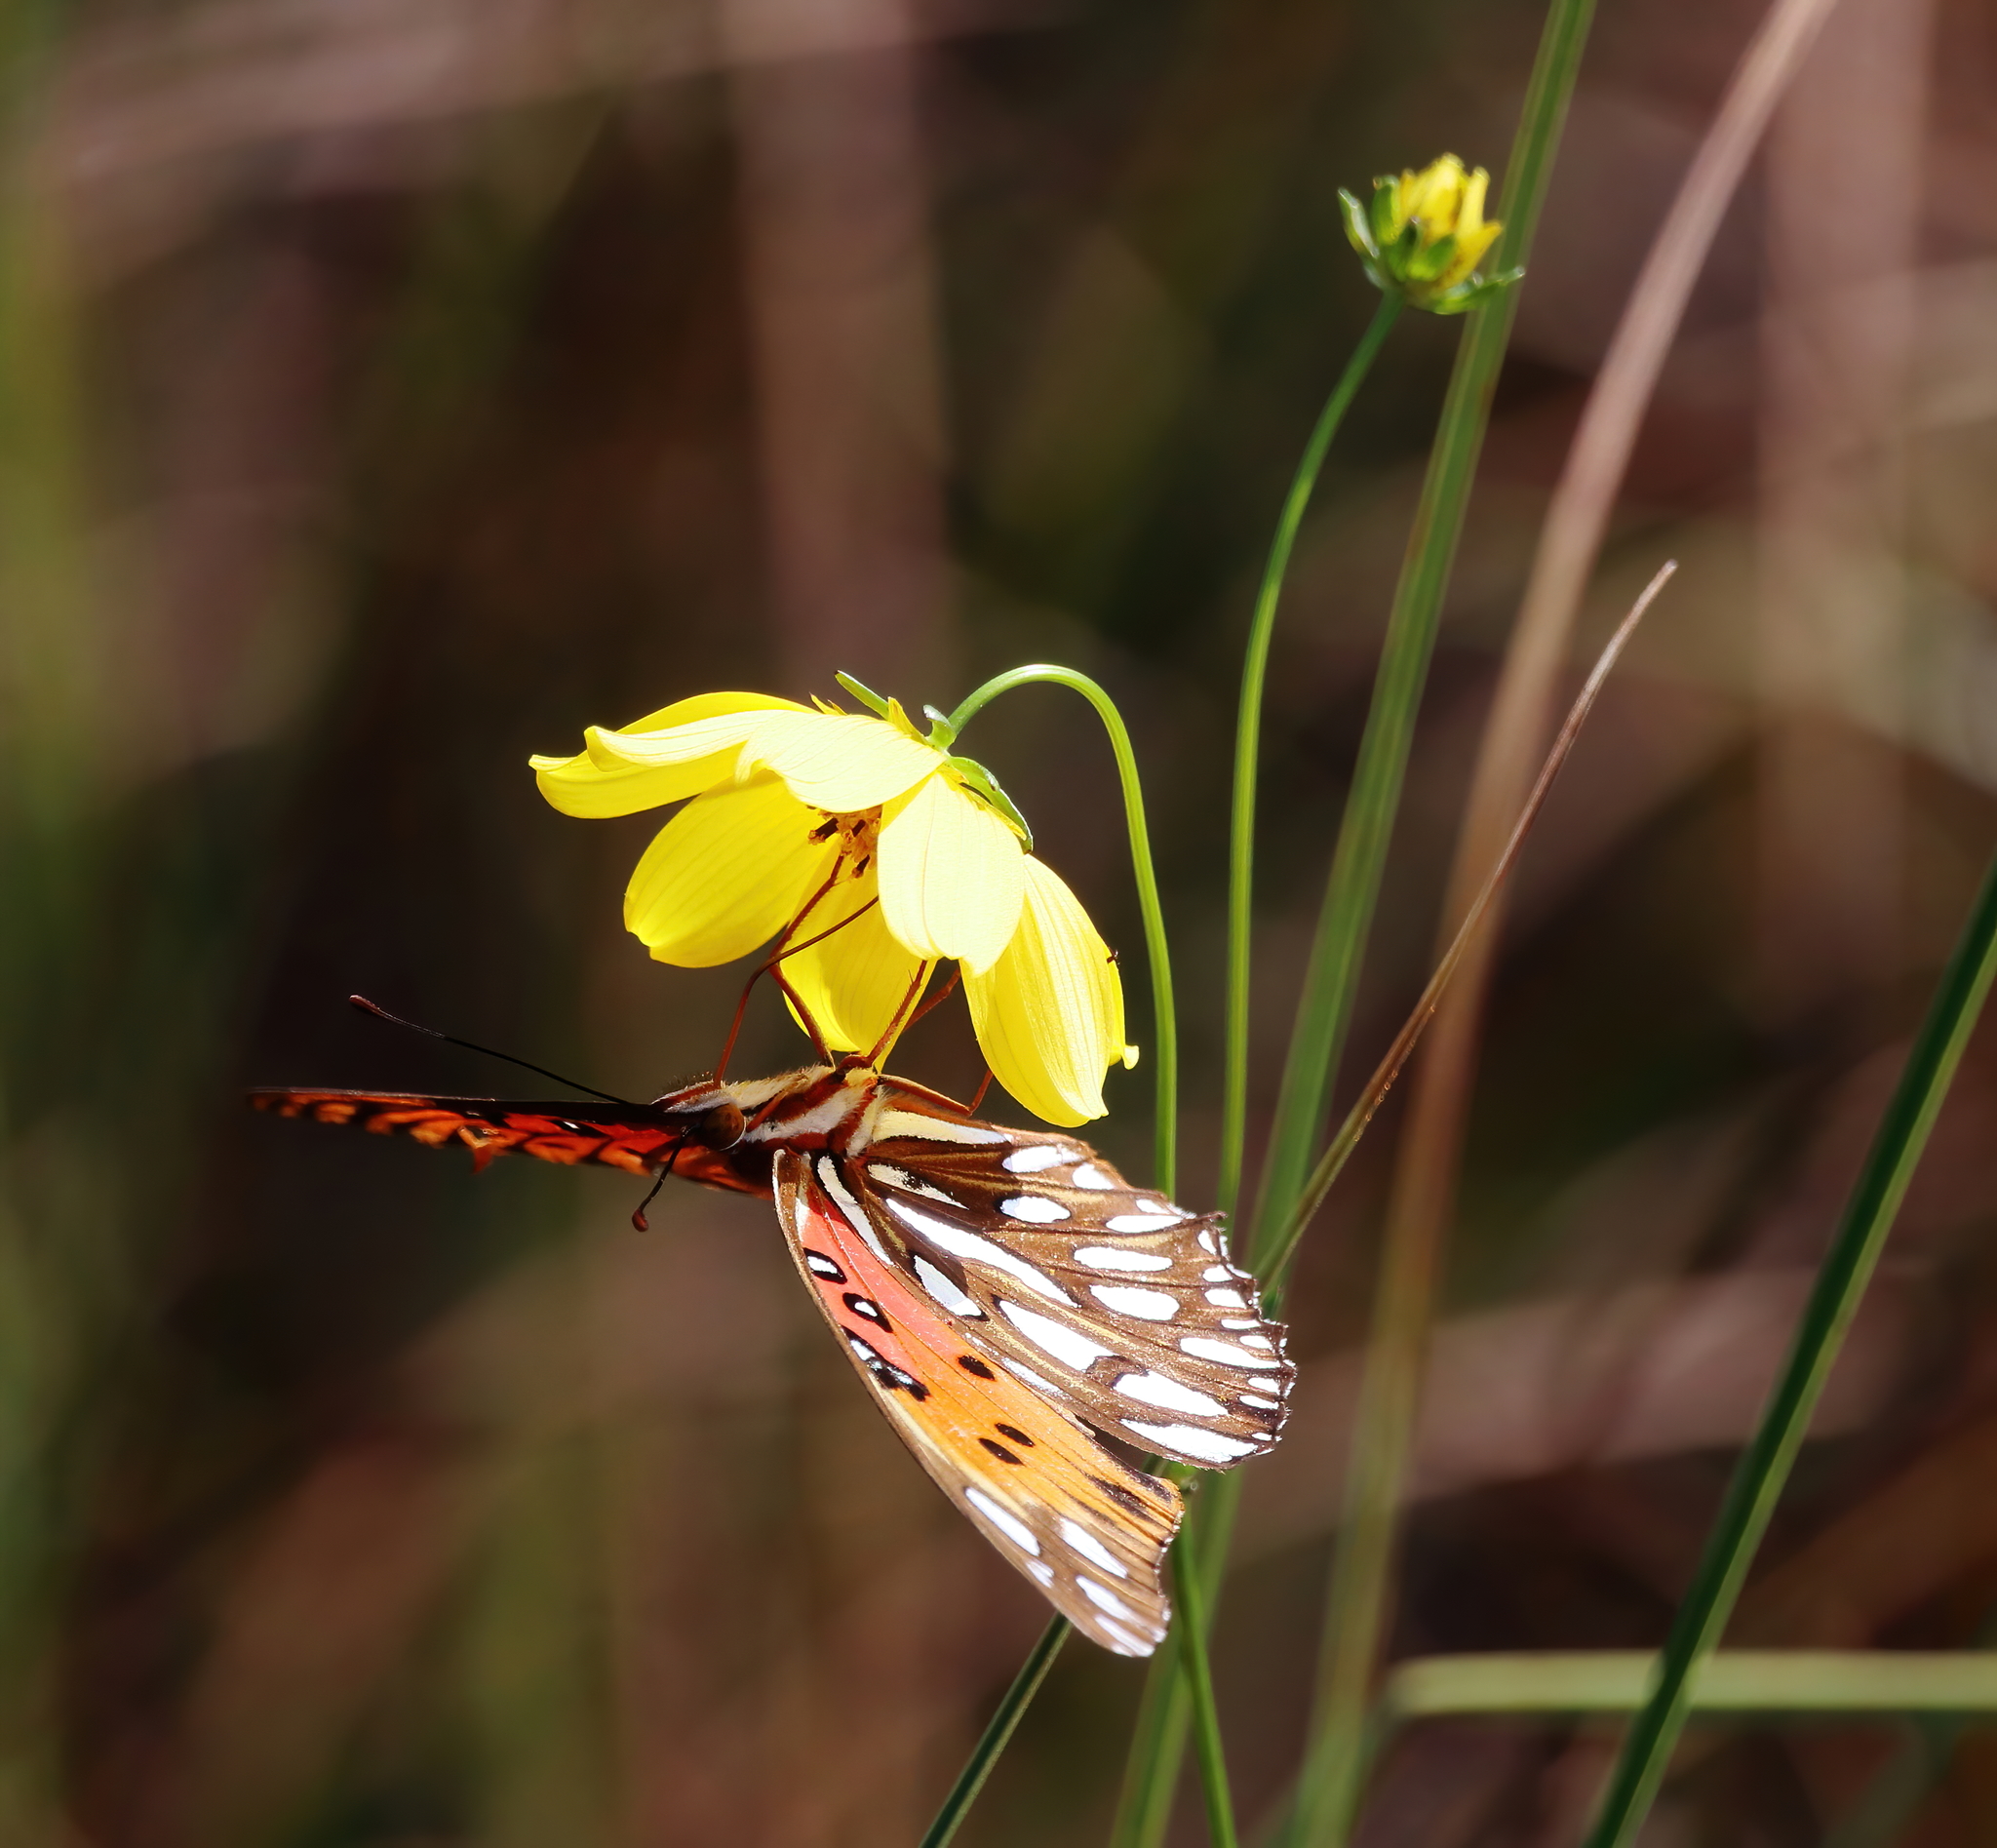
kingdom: Animalia
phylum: Arthropoda
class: Insecta
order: Lepidoptera
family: Nymphalidae
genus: Dione
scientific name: Dione vanillae
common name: Gulf fritillary
